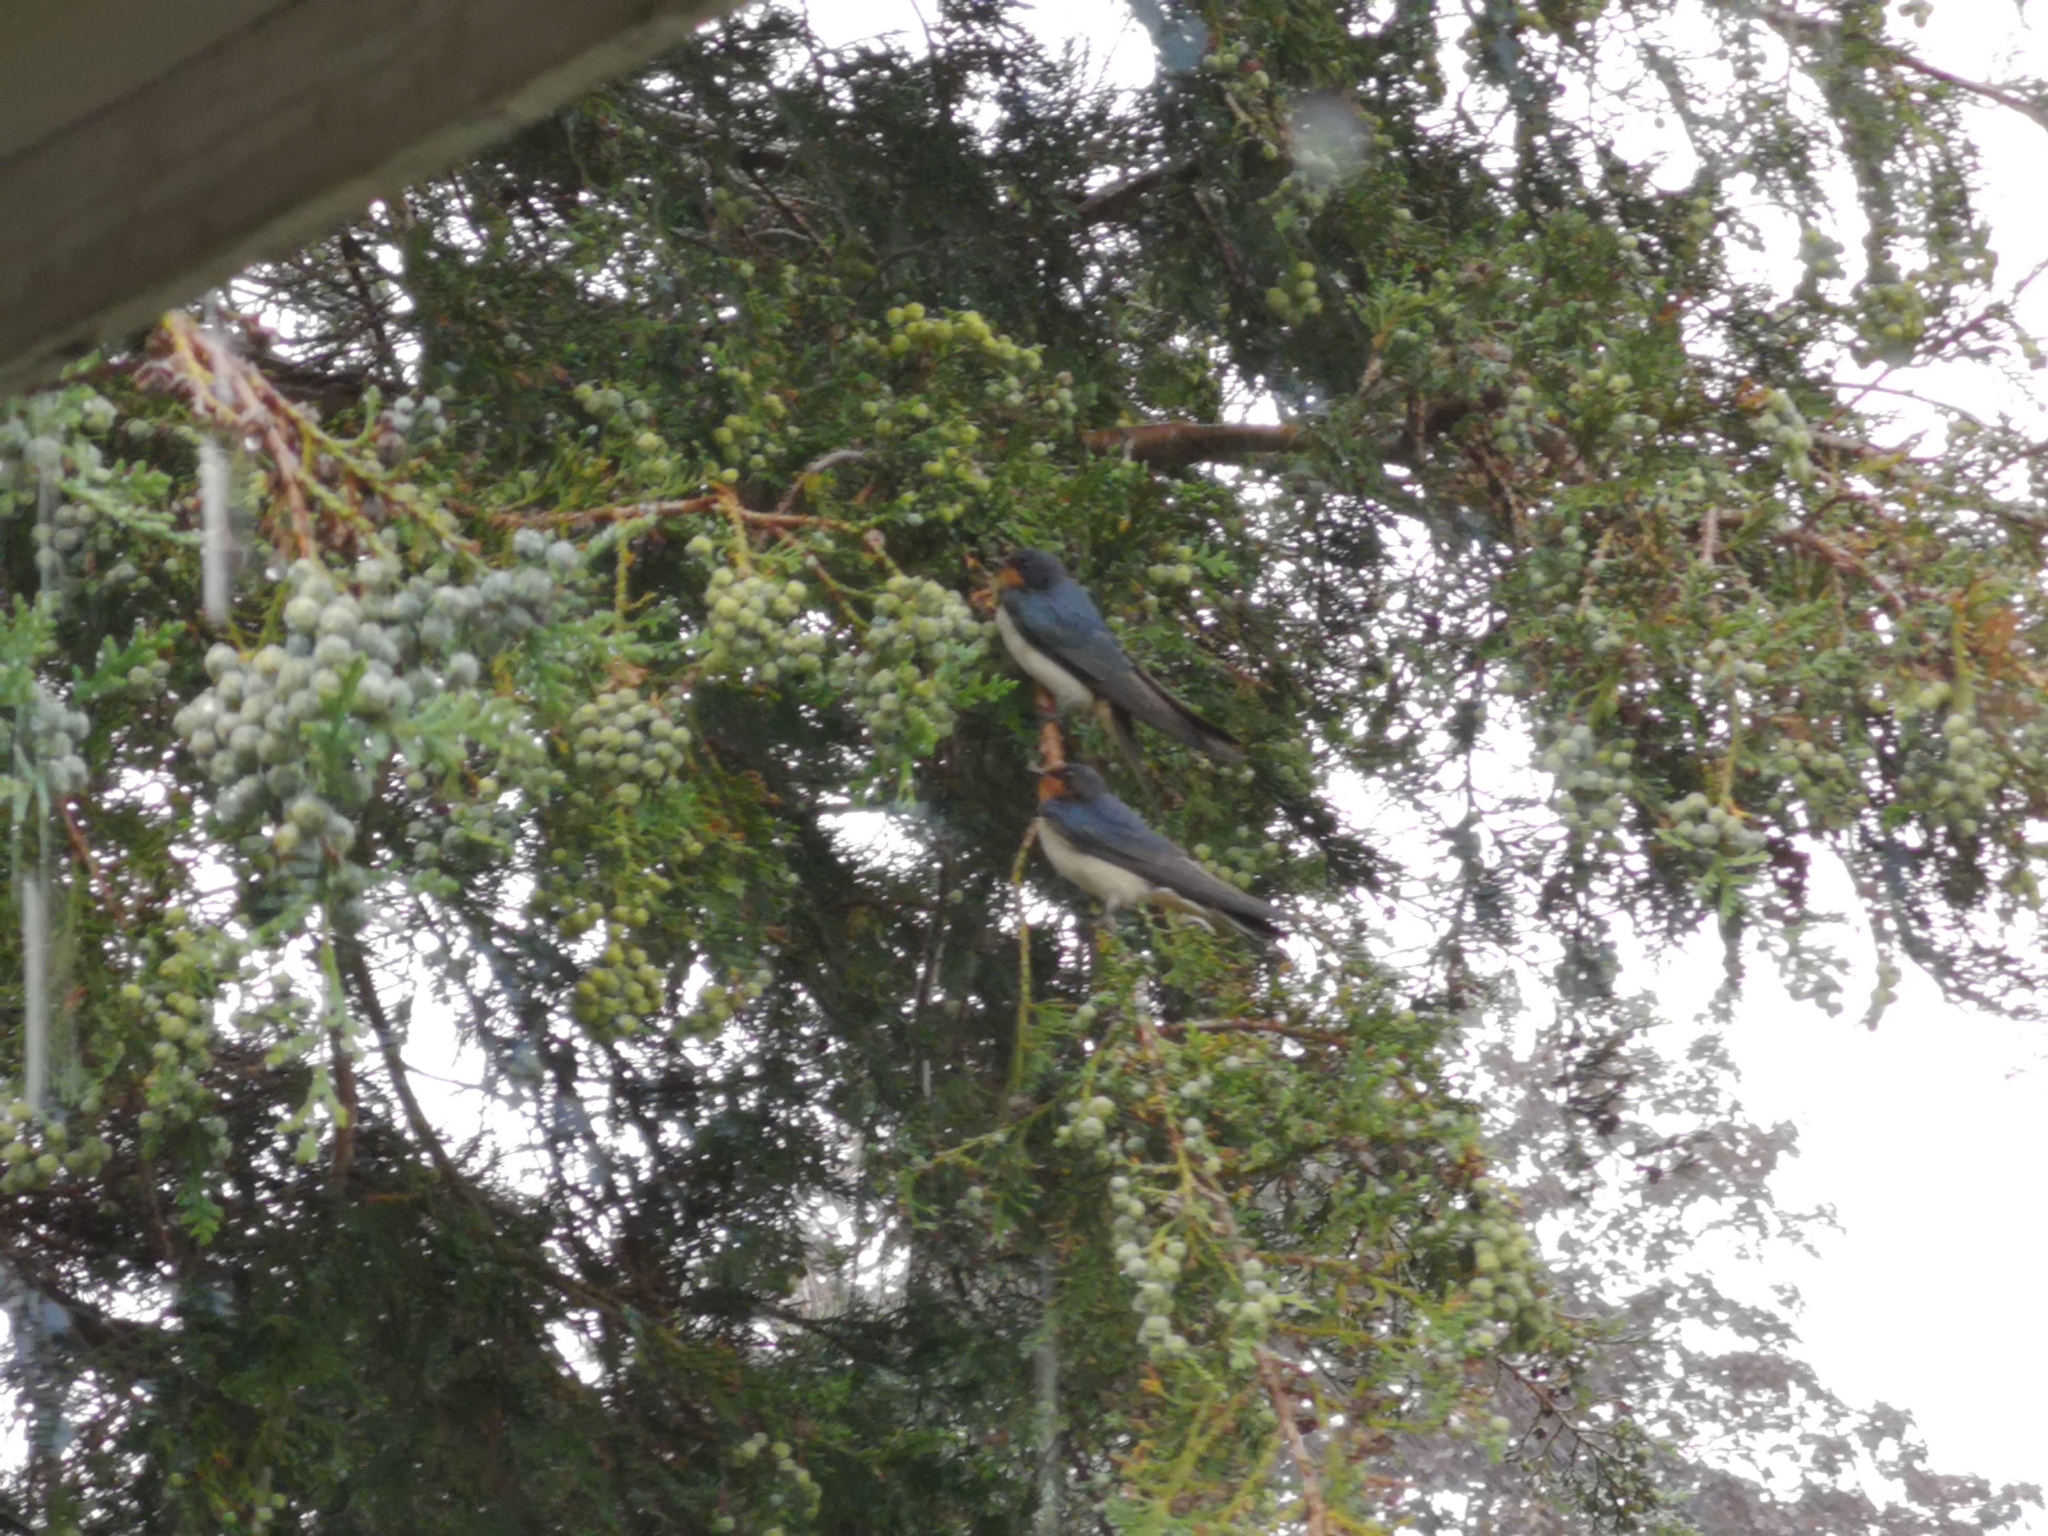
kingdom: Animalia
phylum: Chordata
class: Aves
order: Passeriformes
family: Hirundinidae
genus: Hirundo
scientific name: Hirundo rustica
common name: Barn swallow
